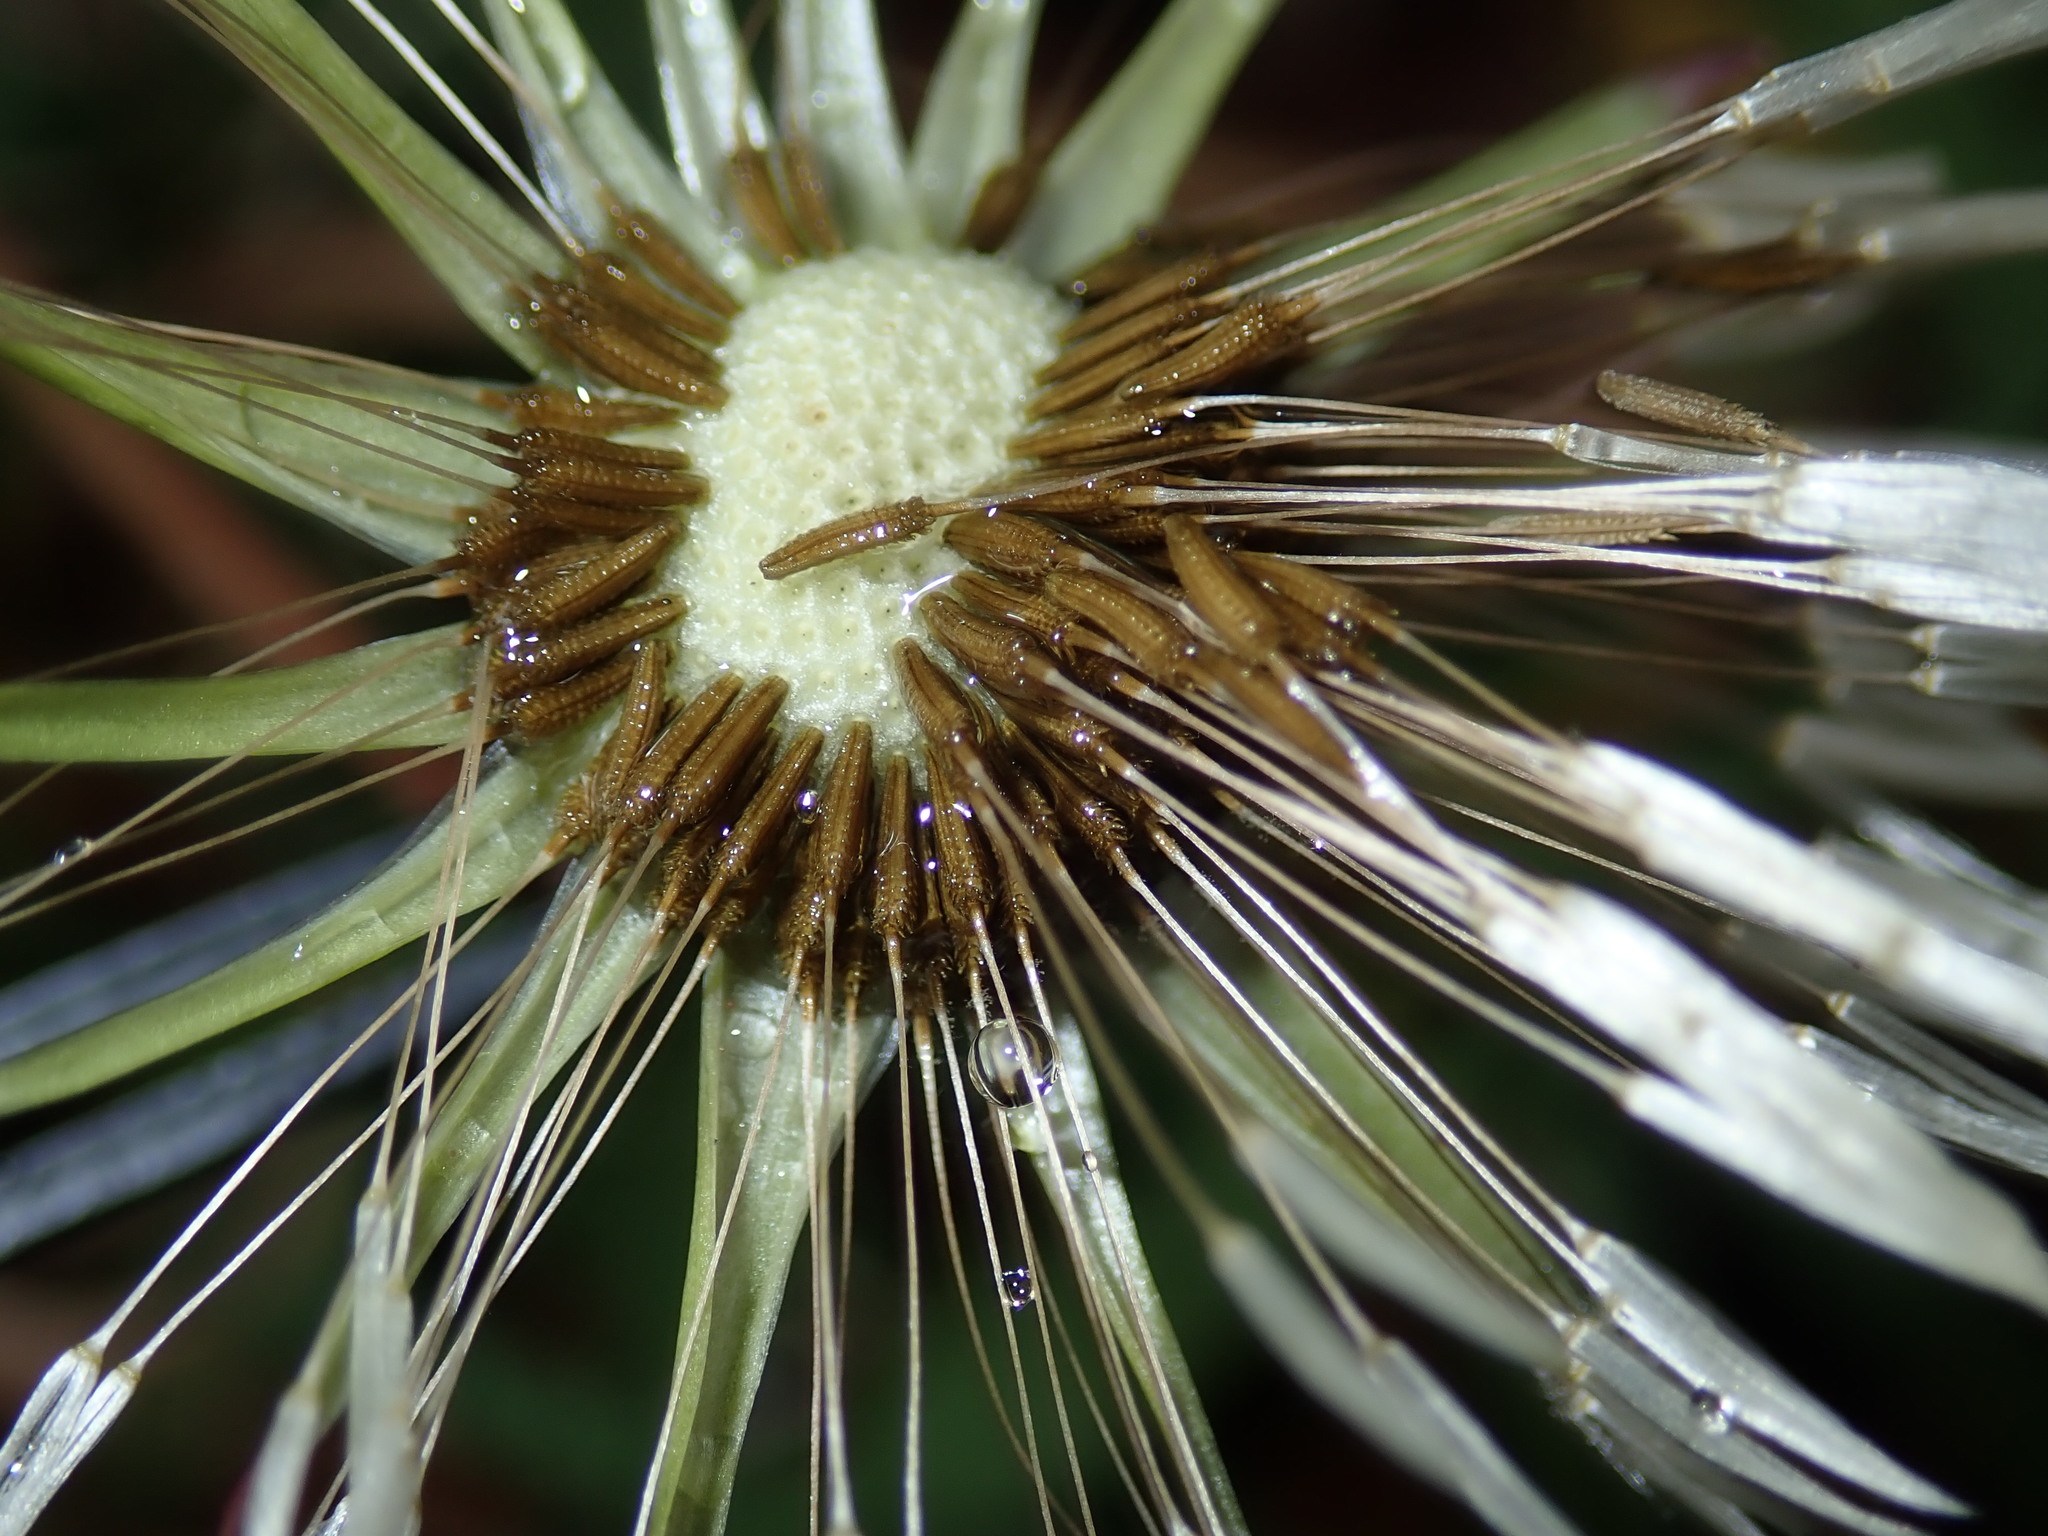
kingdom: Plantae
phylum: Tracheophyta
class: Magnoliopsida
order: Asterales
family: Asteraceae
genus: Taraxacum
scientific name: Taraxacum officinale
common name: Common dandelion
